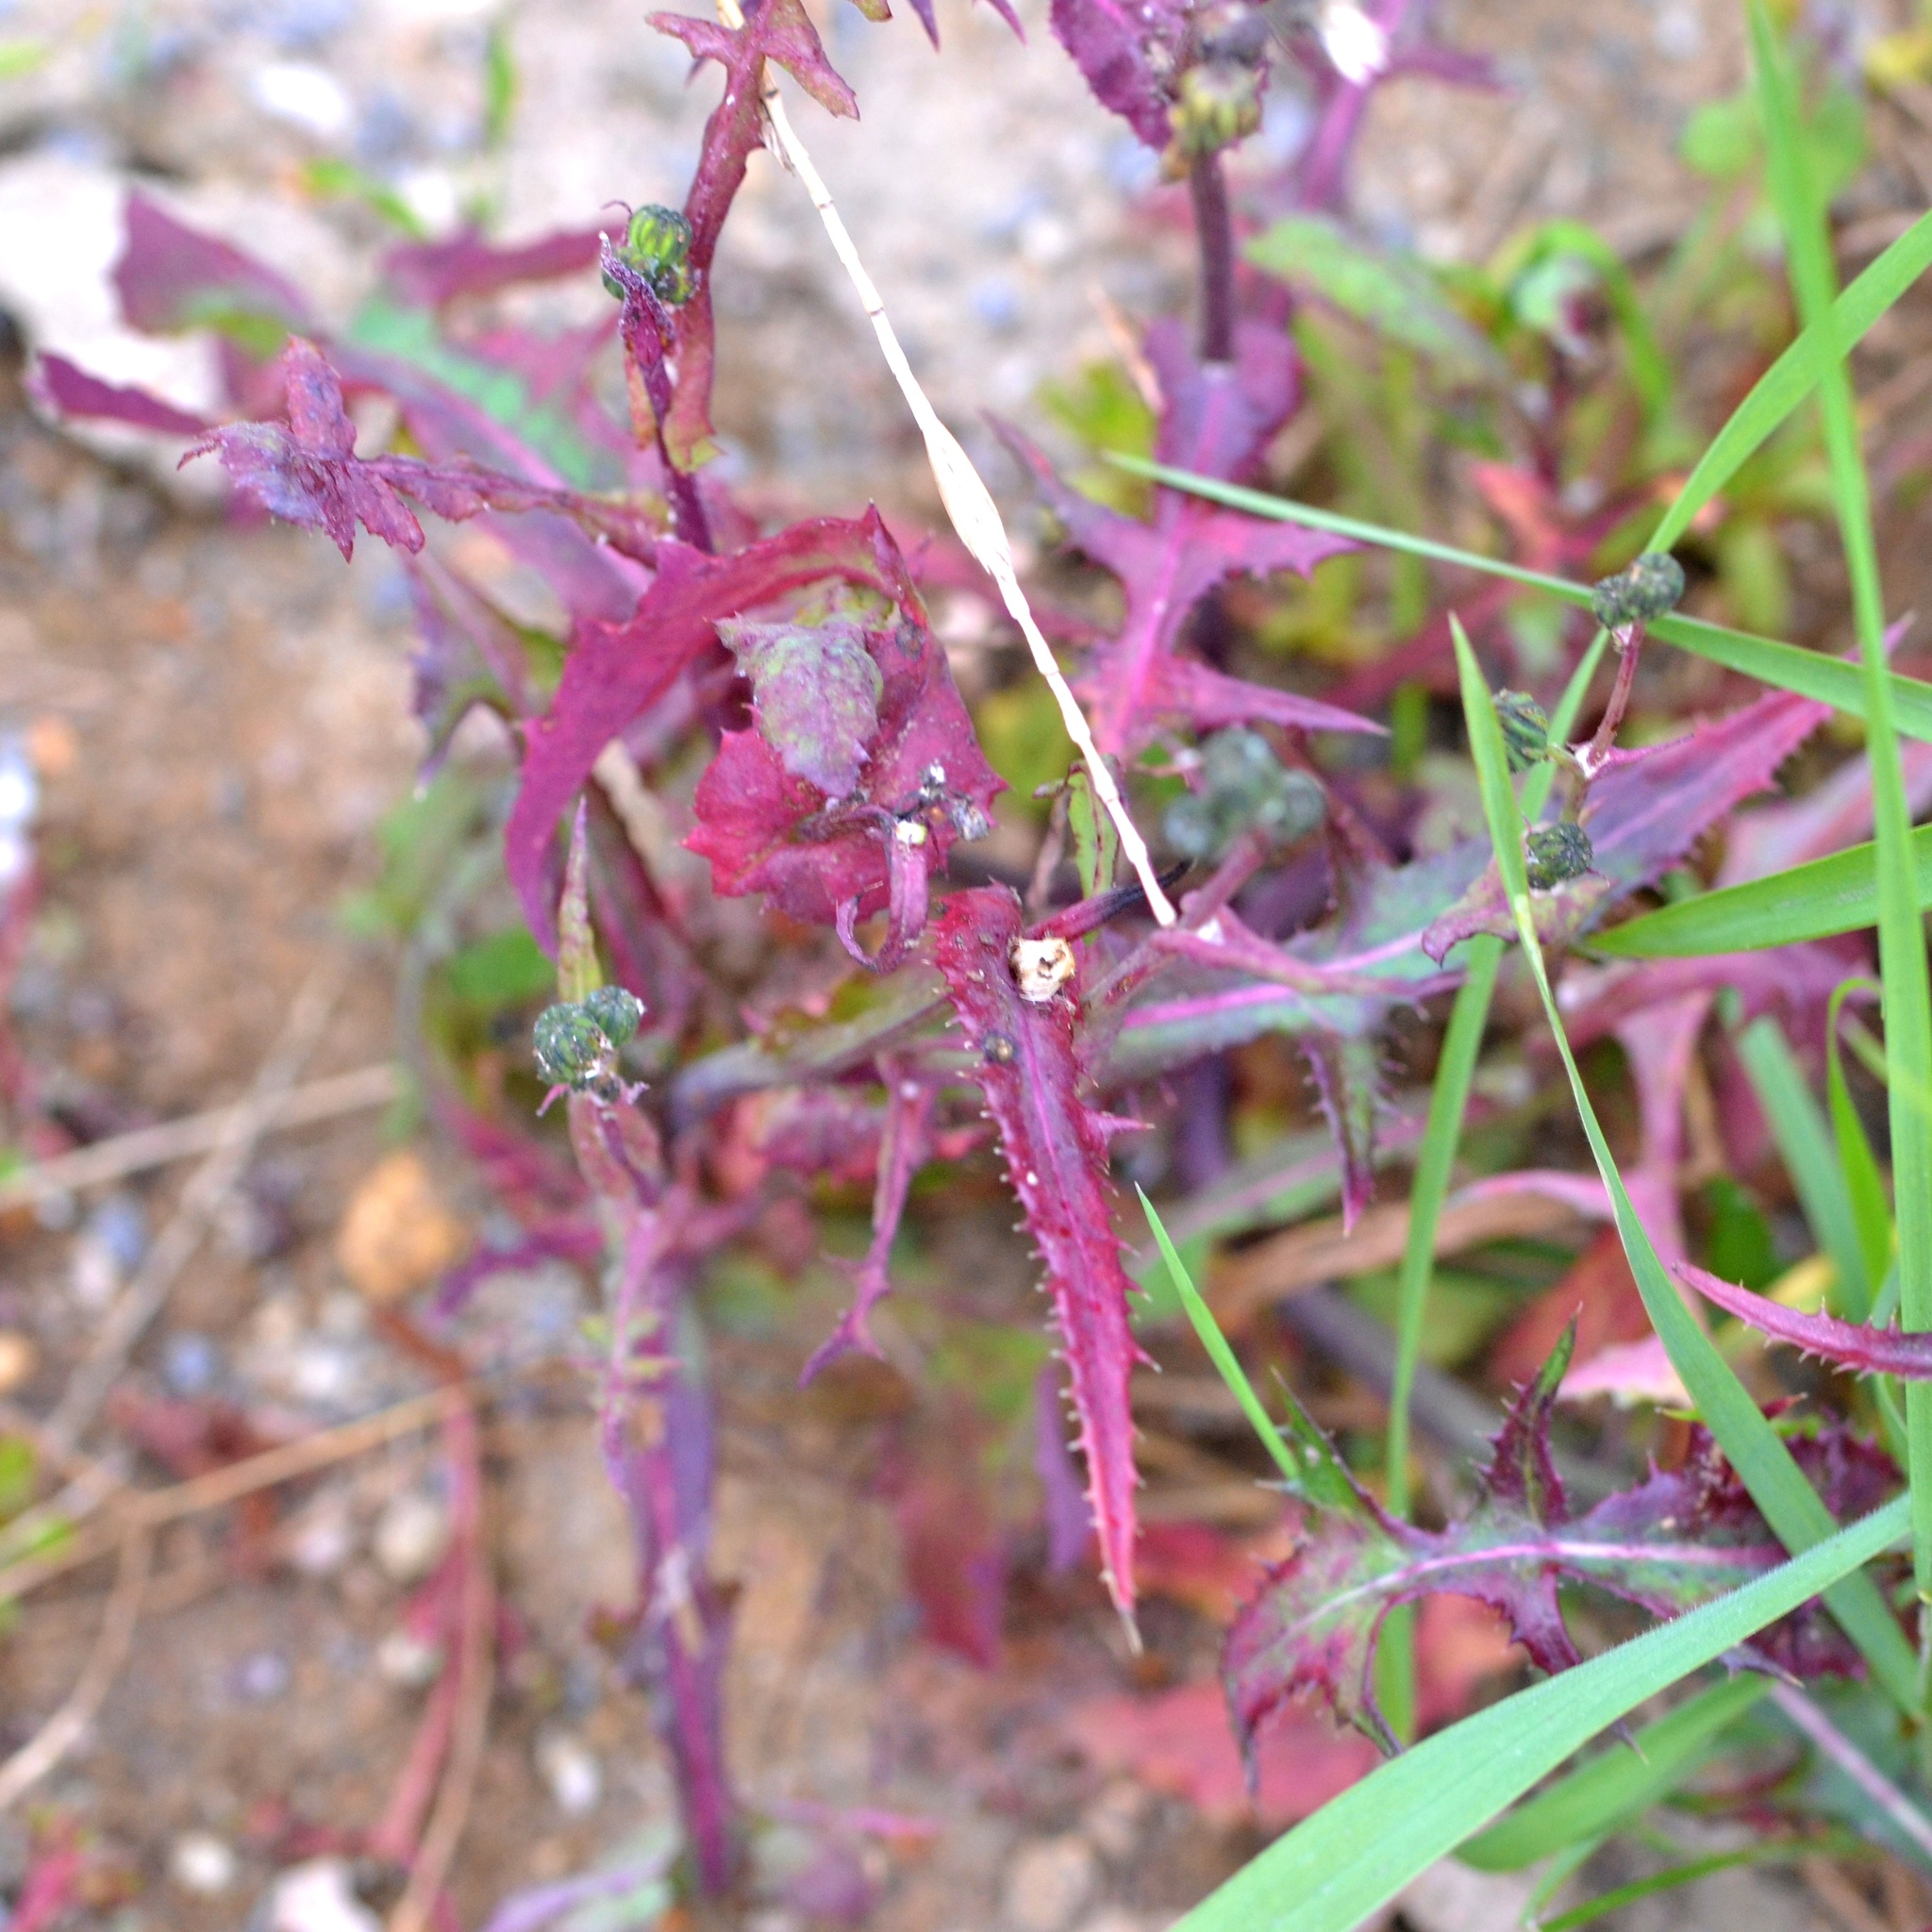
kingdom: Plantae
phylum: Tracheophyta
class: Magnoliopsida
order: Asterales
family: Asteraceae
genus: Sonchus
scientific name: Sonchus oleraceus
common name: Common sowthistle
